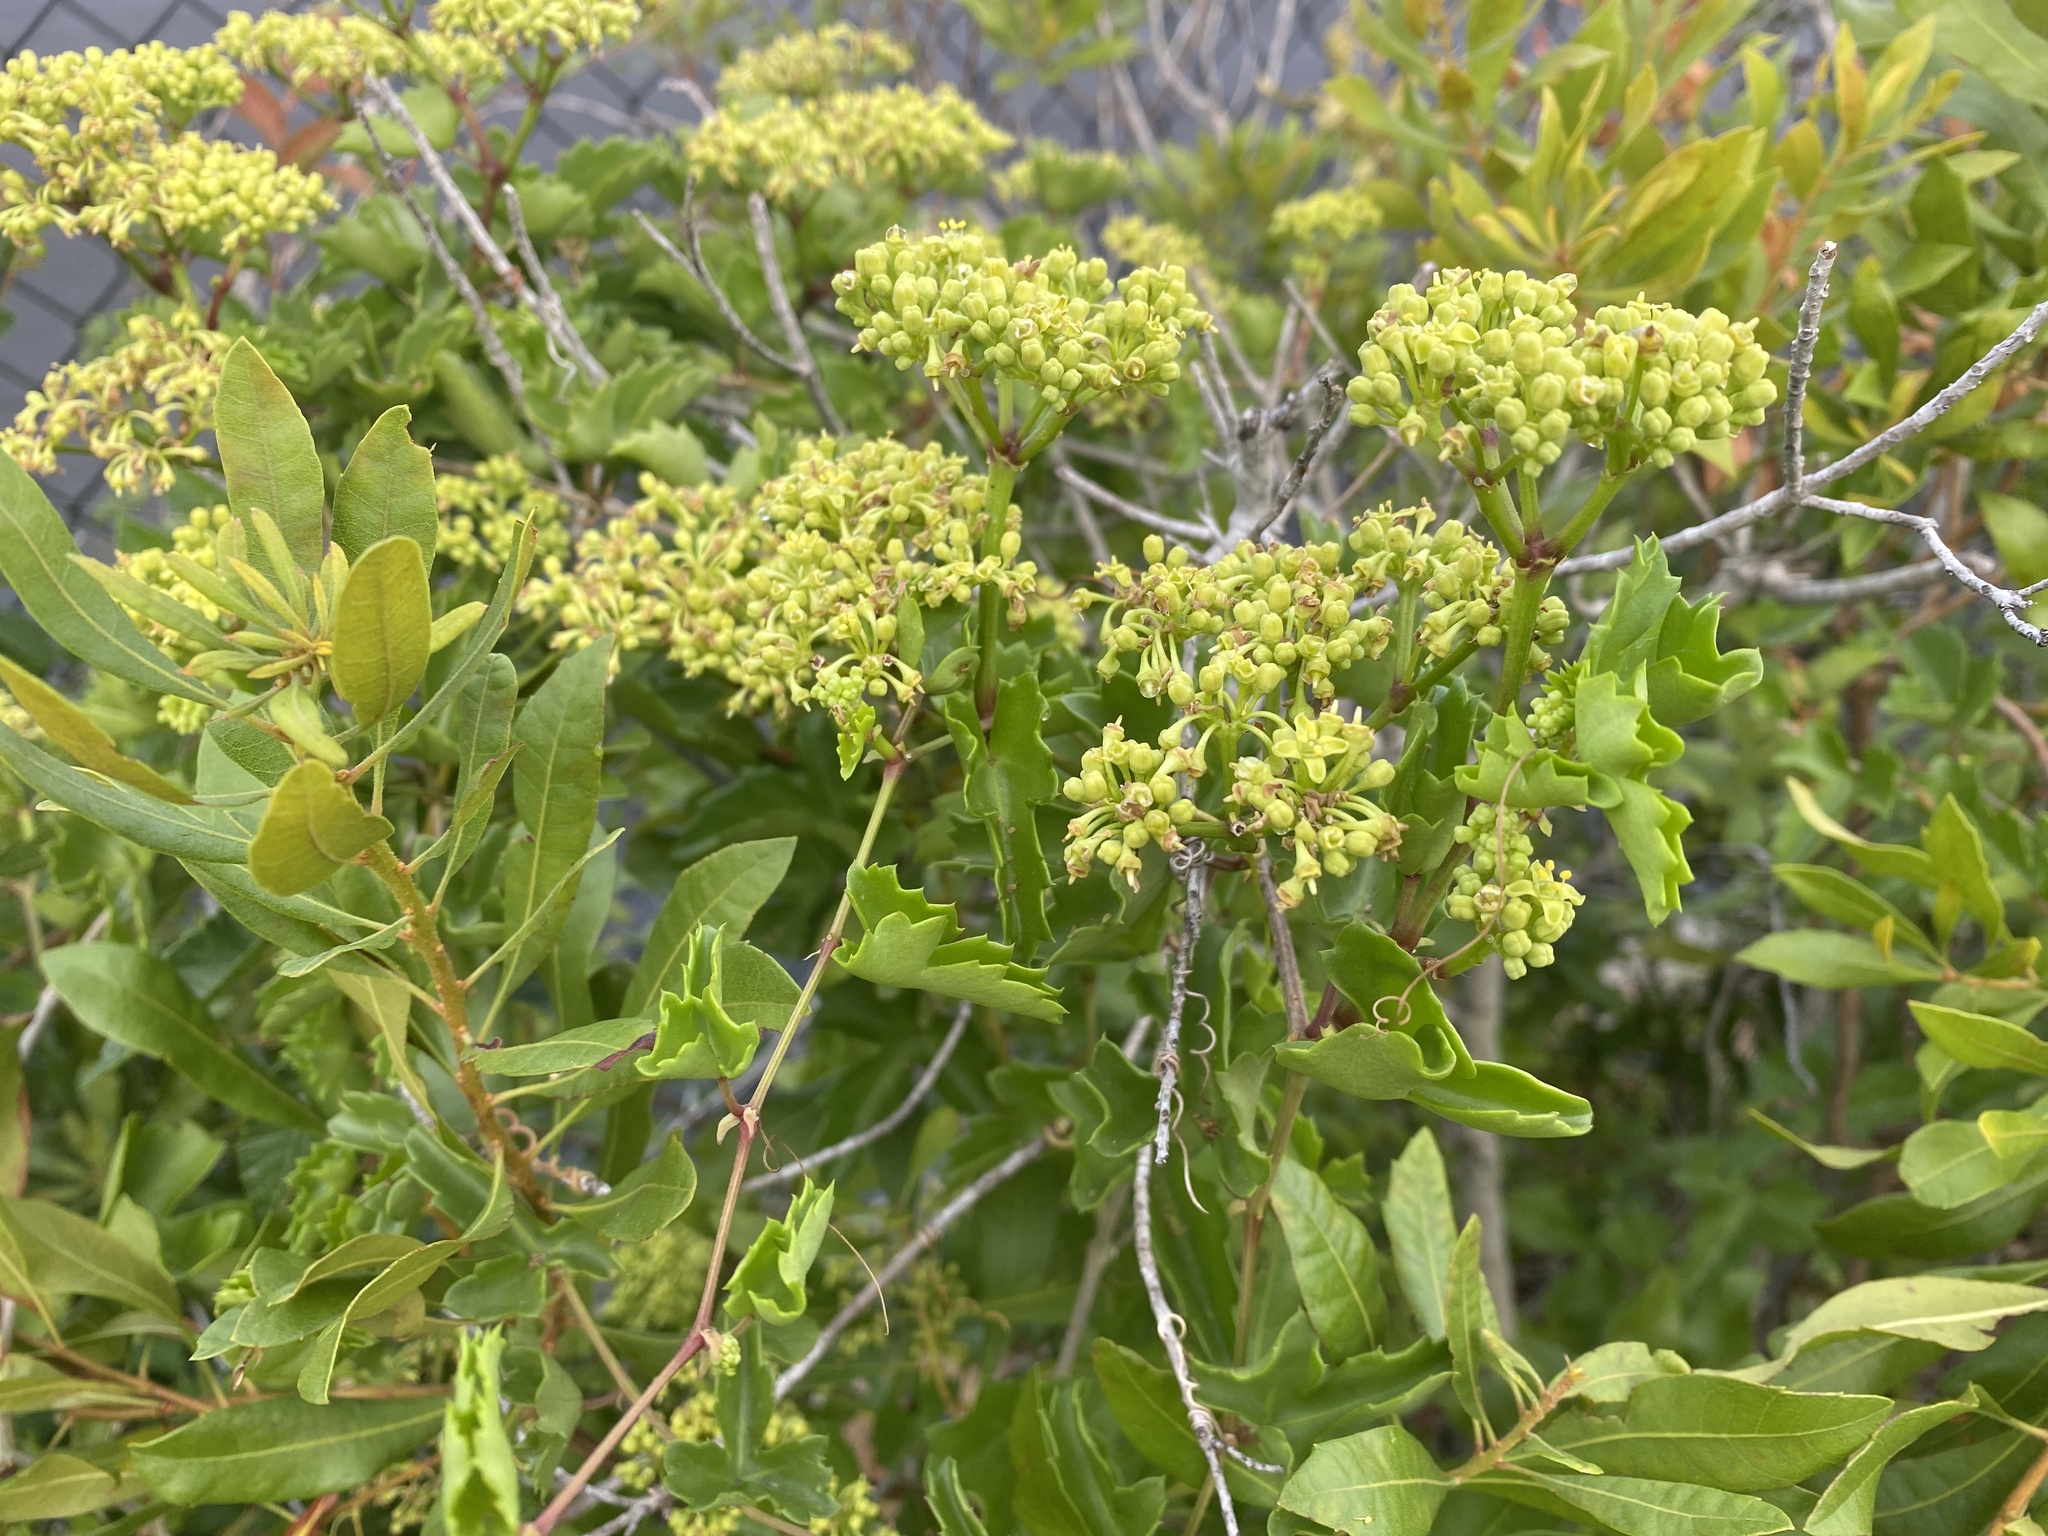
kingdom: Plantae
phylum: Tracheophyta
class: Magnoliopsida
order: Vitales
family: Vitaceae
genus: Cissus
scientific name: Cissus trifoliata
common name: Vine-sorrel
